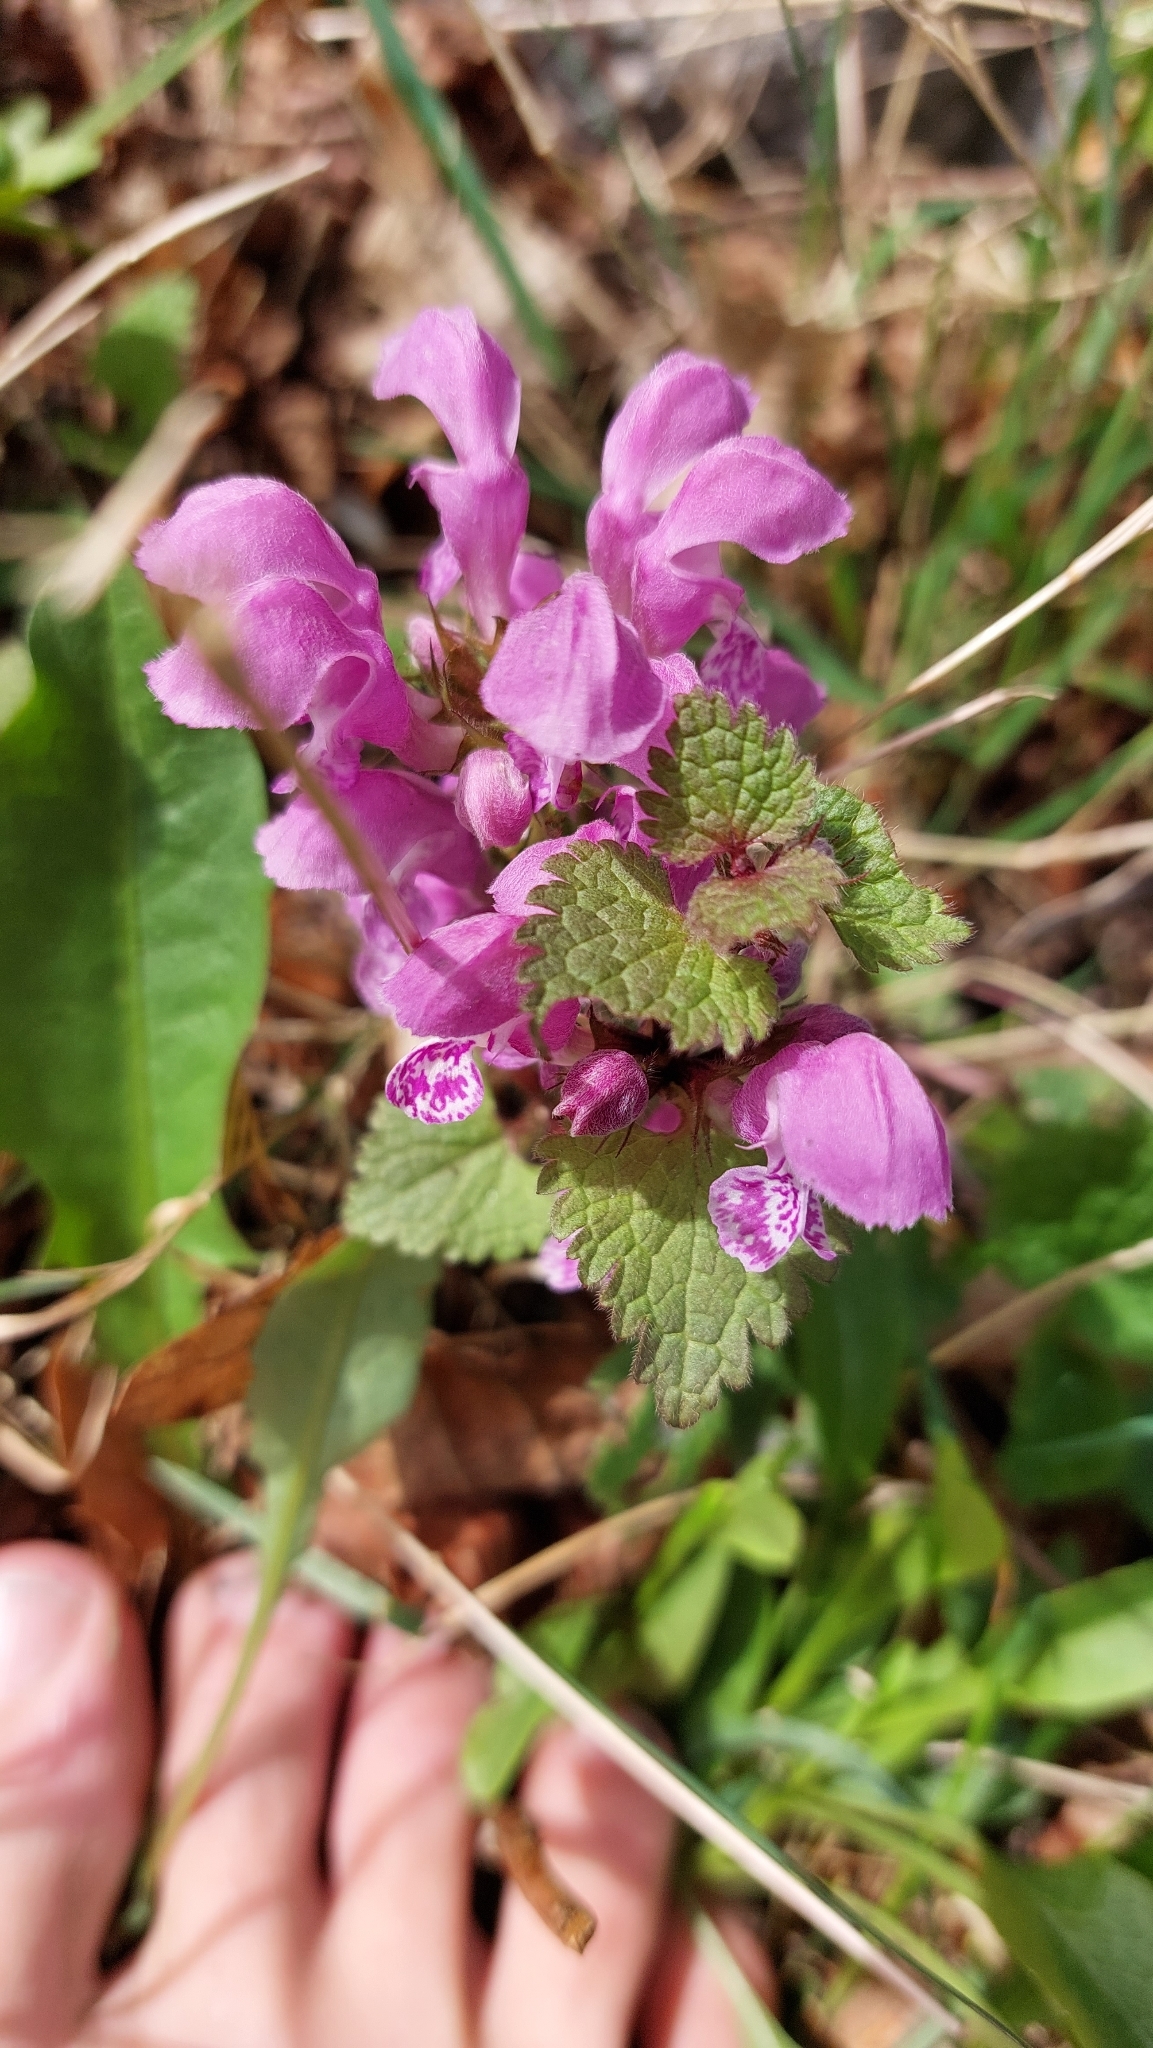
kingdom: Plantae
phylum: Tracheophyta
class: Magnoliopsida
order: Lamiales
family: Lamiaceae
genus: Lamium
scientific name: Lamium maculatum
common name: Spotted dead-nettle
